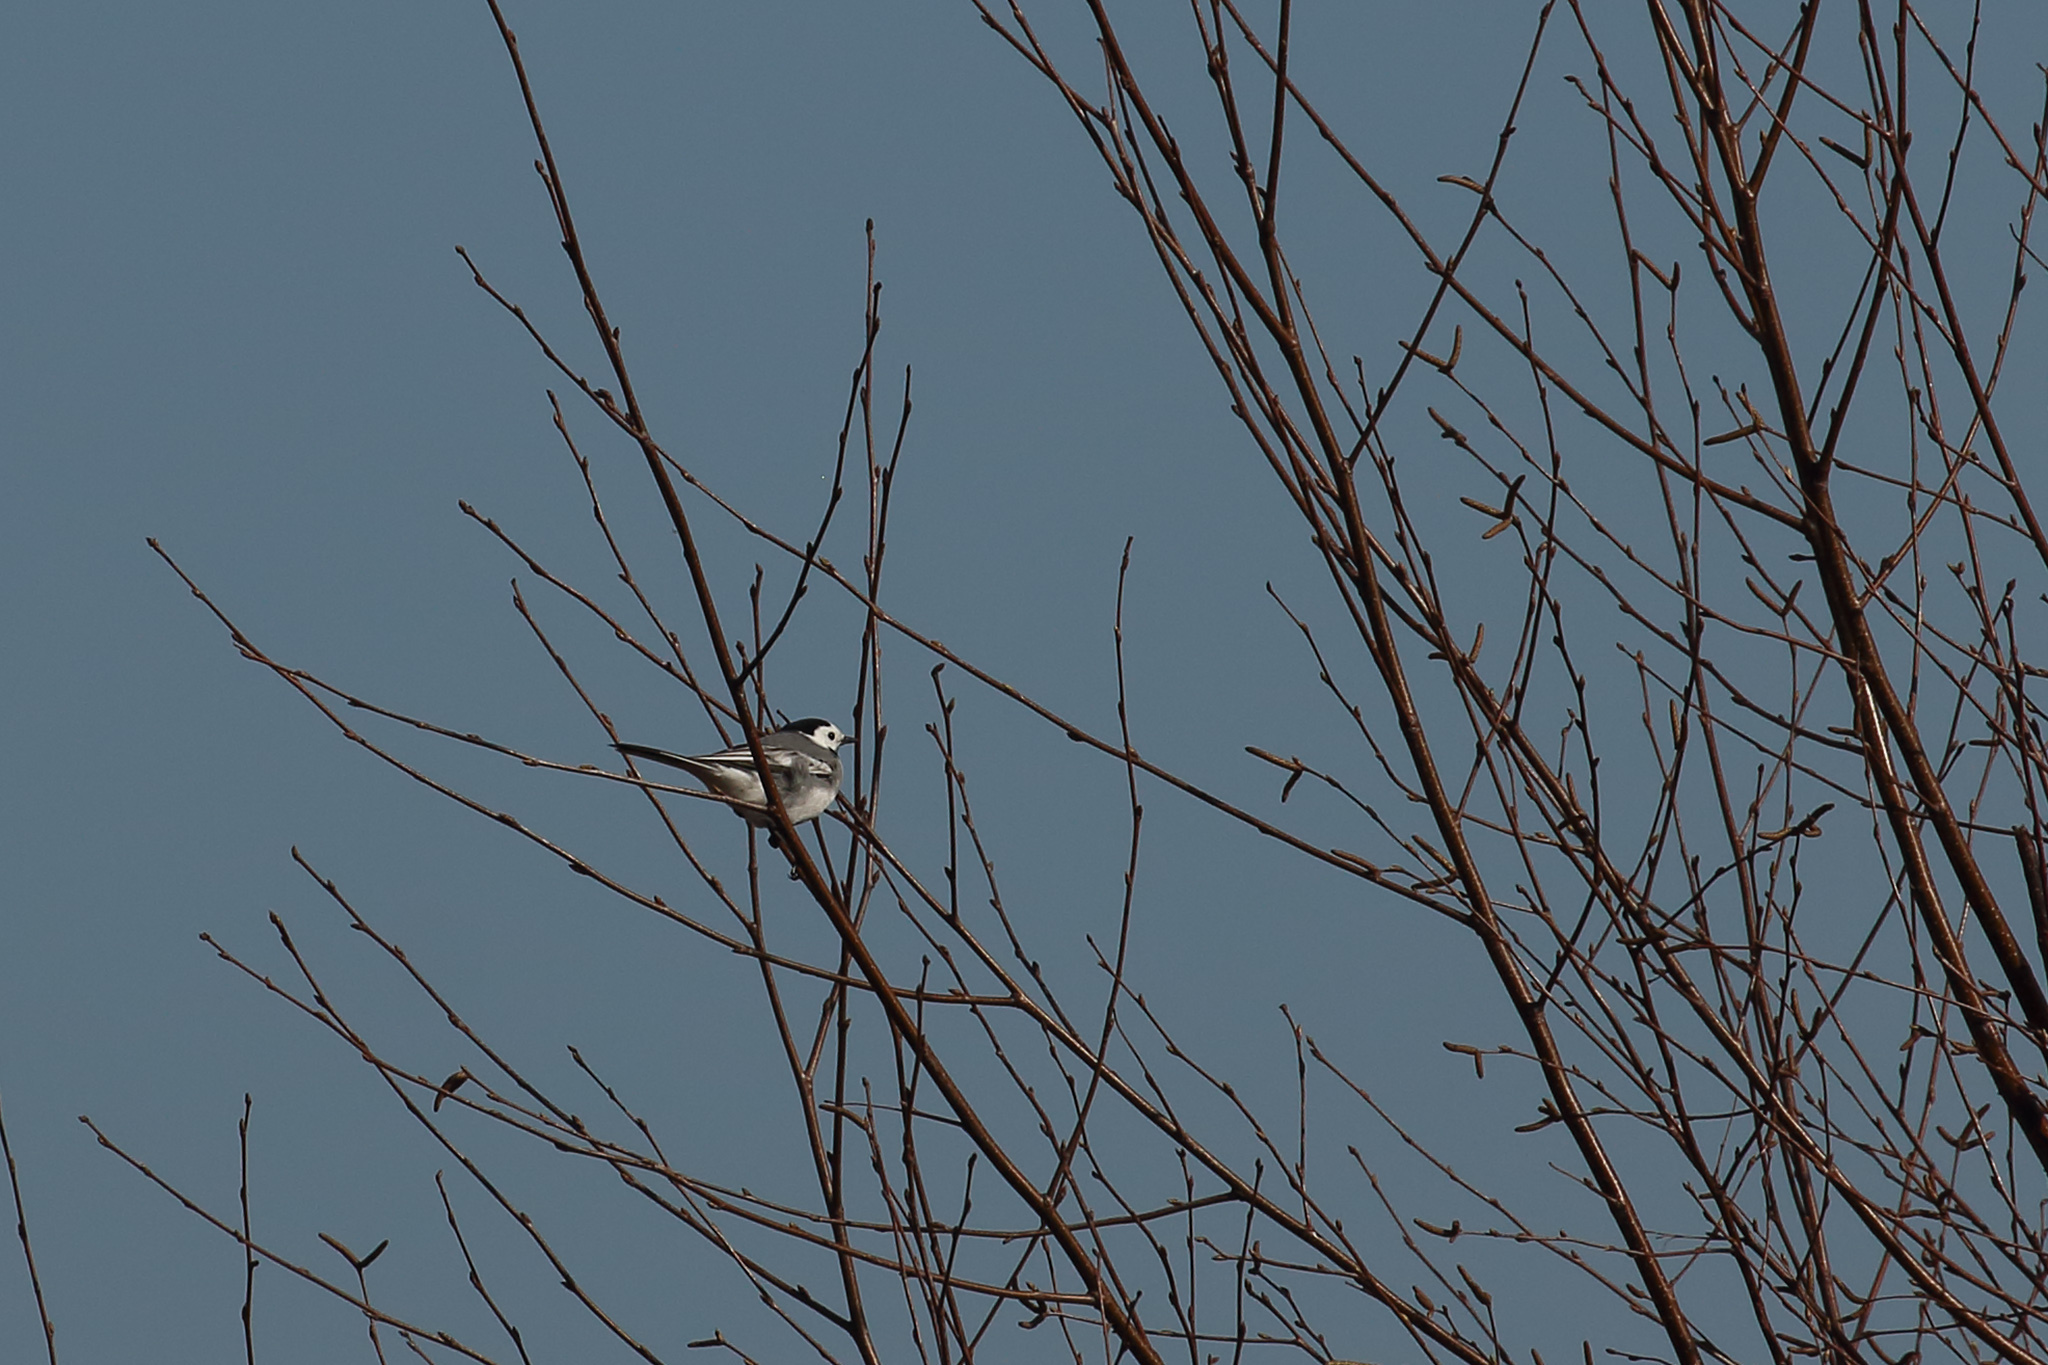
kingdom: Animalia
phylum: Chordata
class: Aves
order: Passeriformes
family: Motacillidae
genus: Motacilla
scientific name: Motacilla alba
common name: White wagtail
